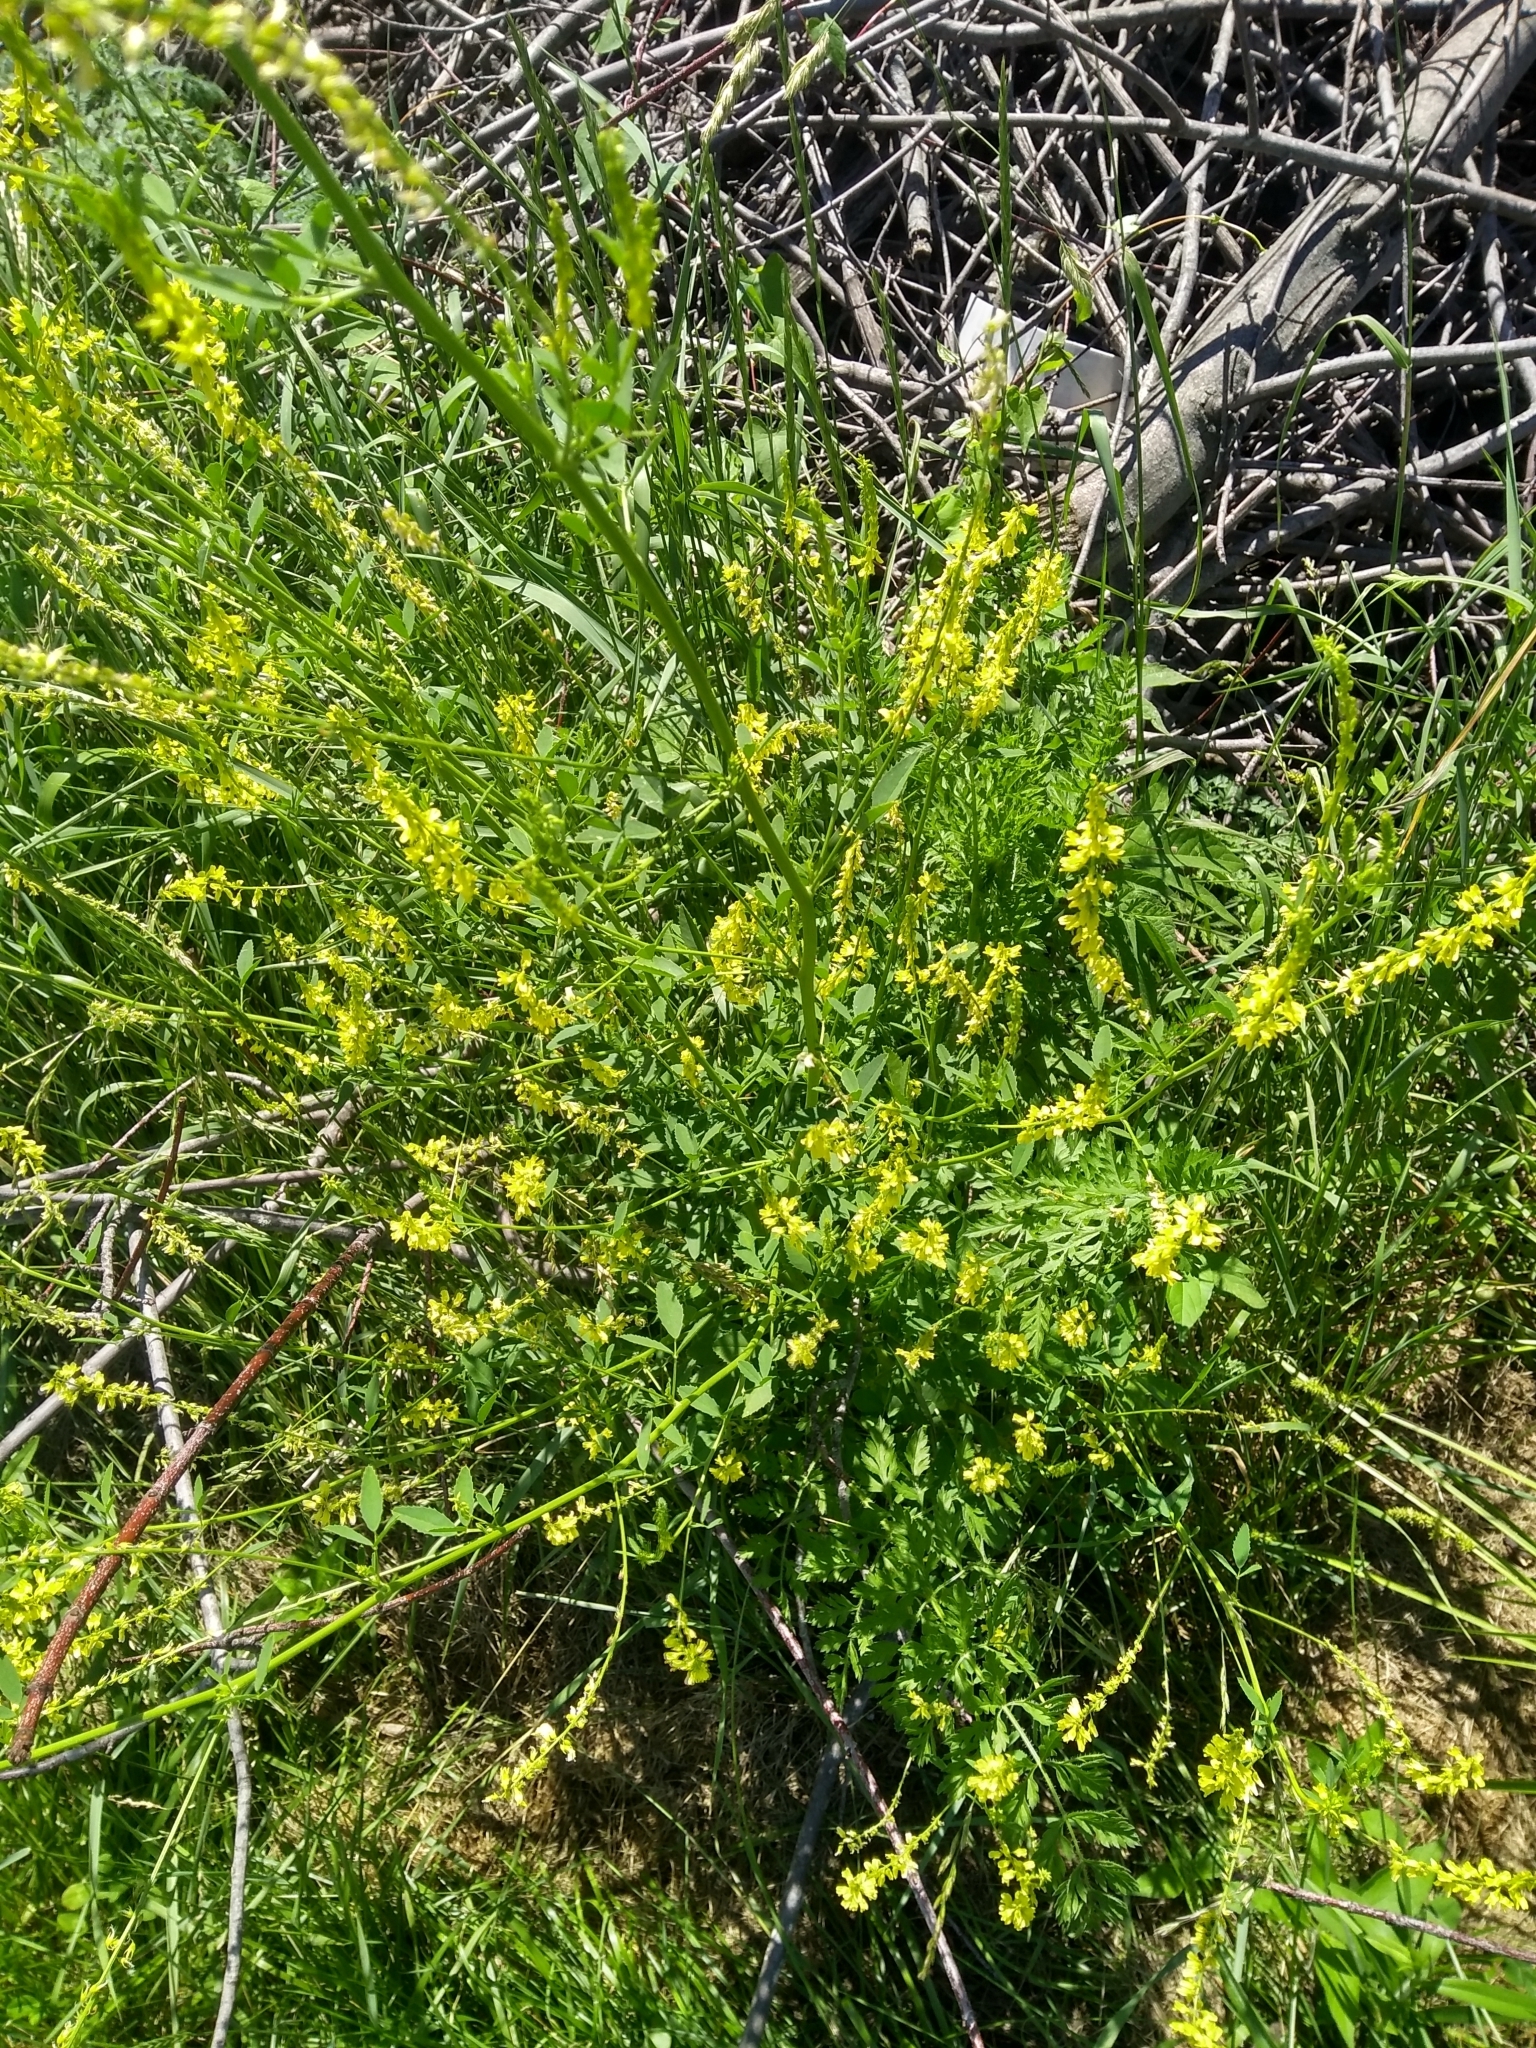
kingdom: Plantae
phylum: Tracheophyta
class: Magnoliopsida
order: Fabales
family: Fabaceae
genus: Melilotus
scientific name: Melilotus officinalis
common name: Sweetclover
